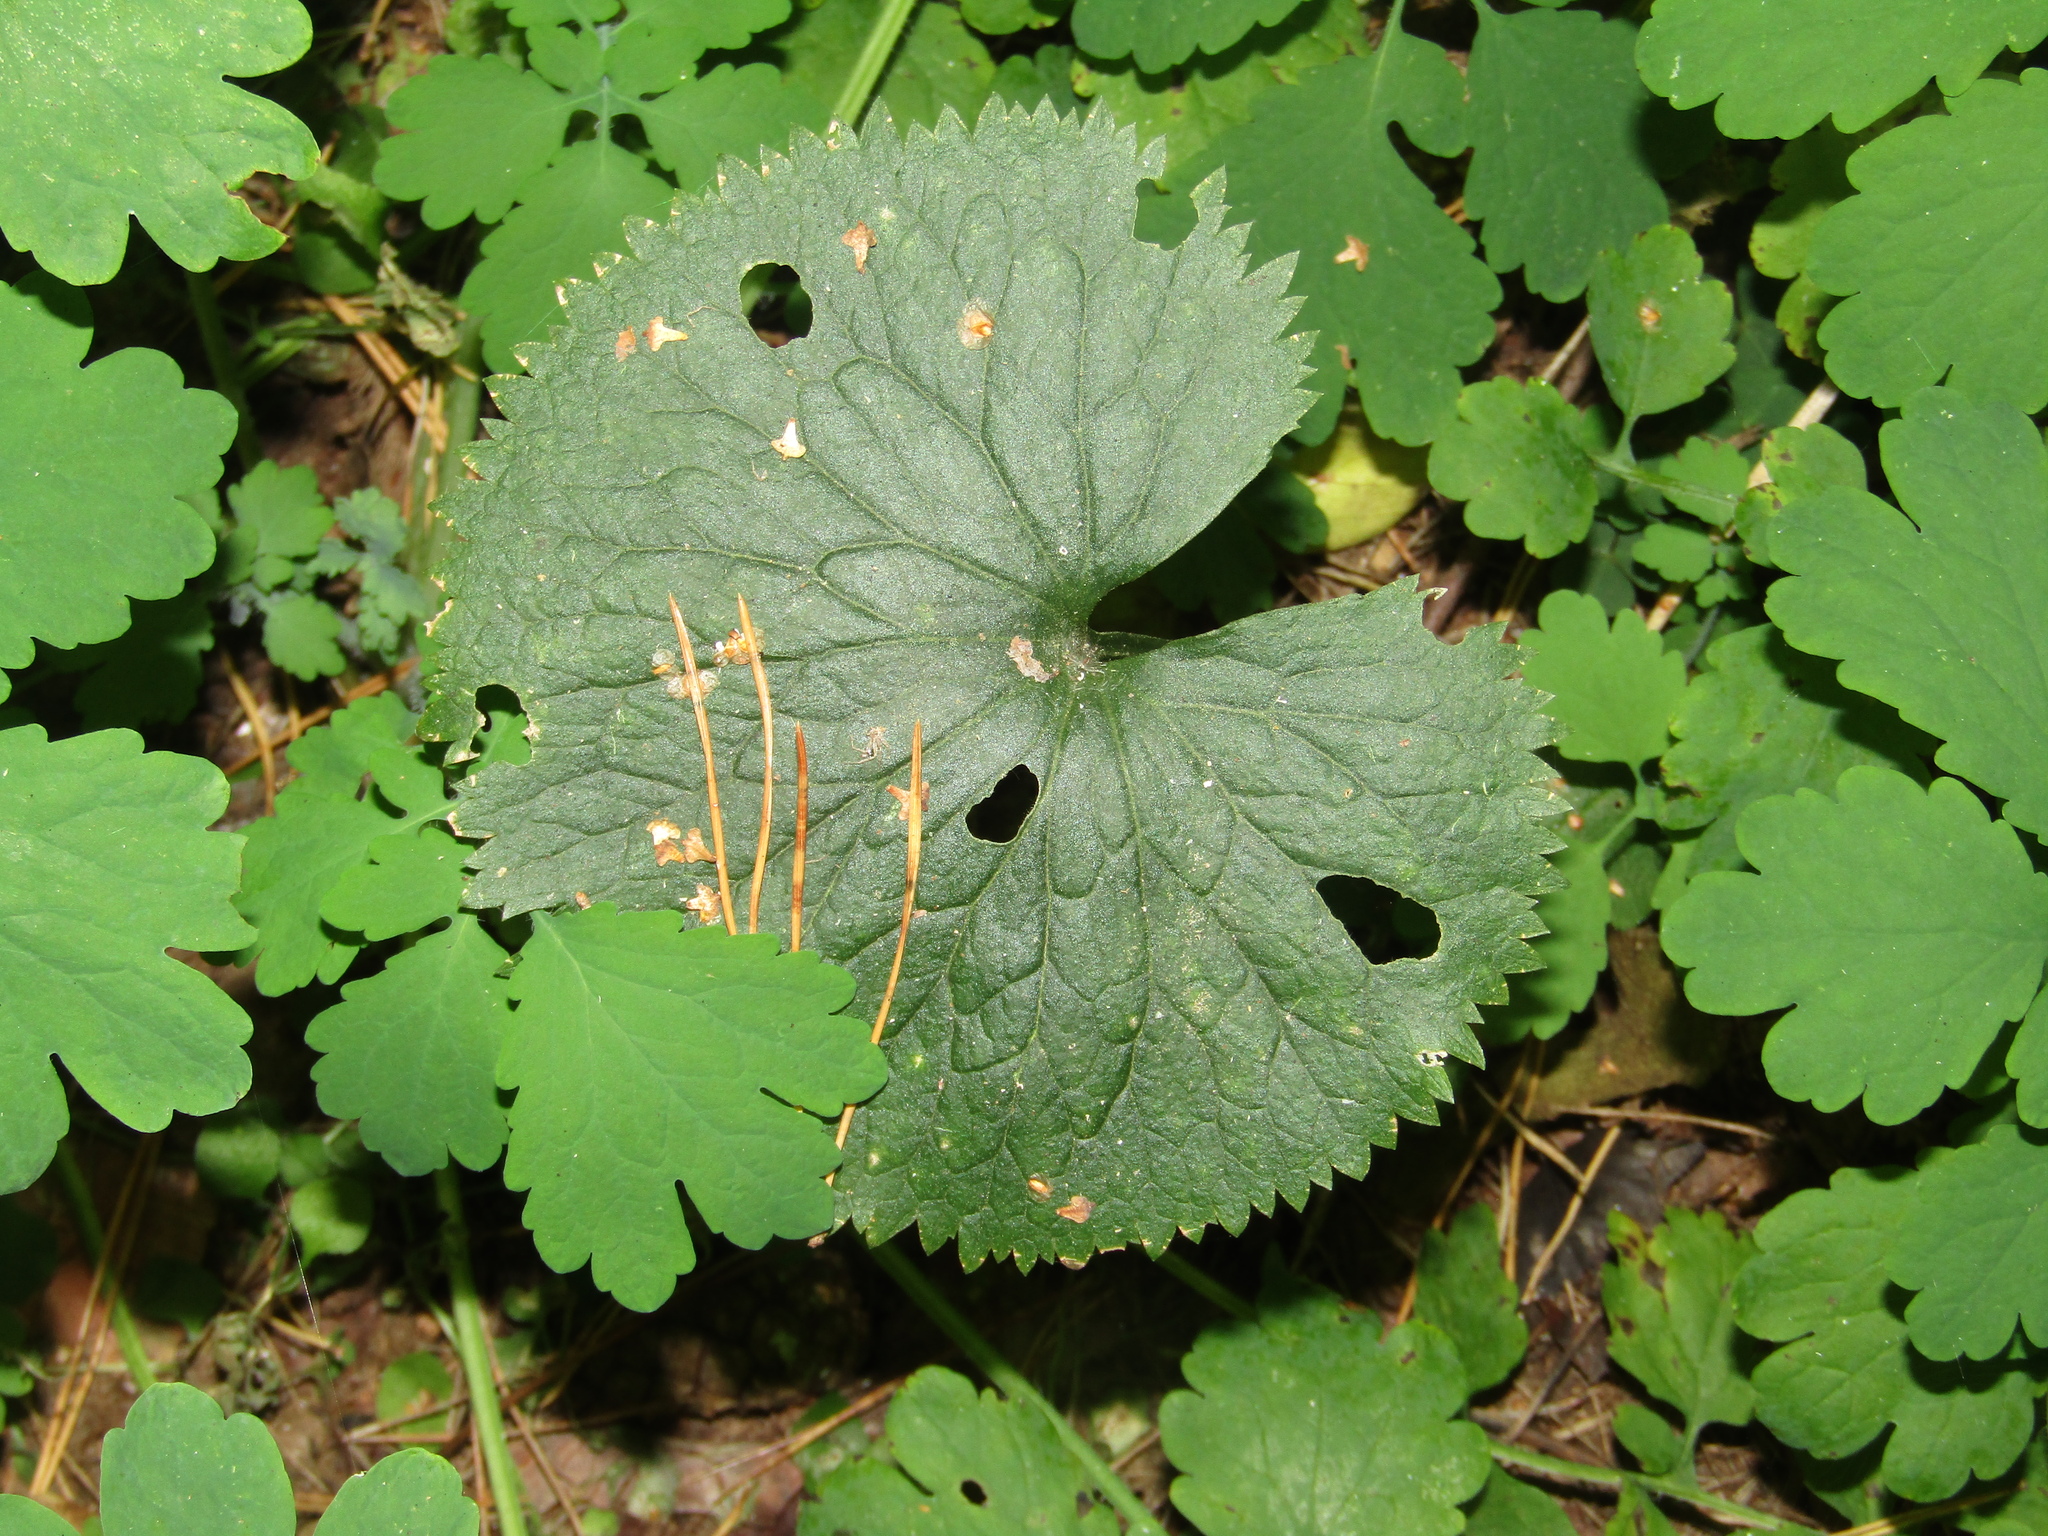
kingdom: Plantae
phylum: Tracheophyta
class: Magnoliopsida
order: Ranunculales
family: Ranunculaceae
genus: Ranunculus
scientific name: Ranunculus cassubicus
